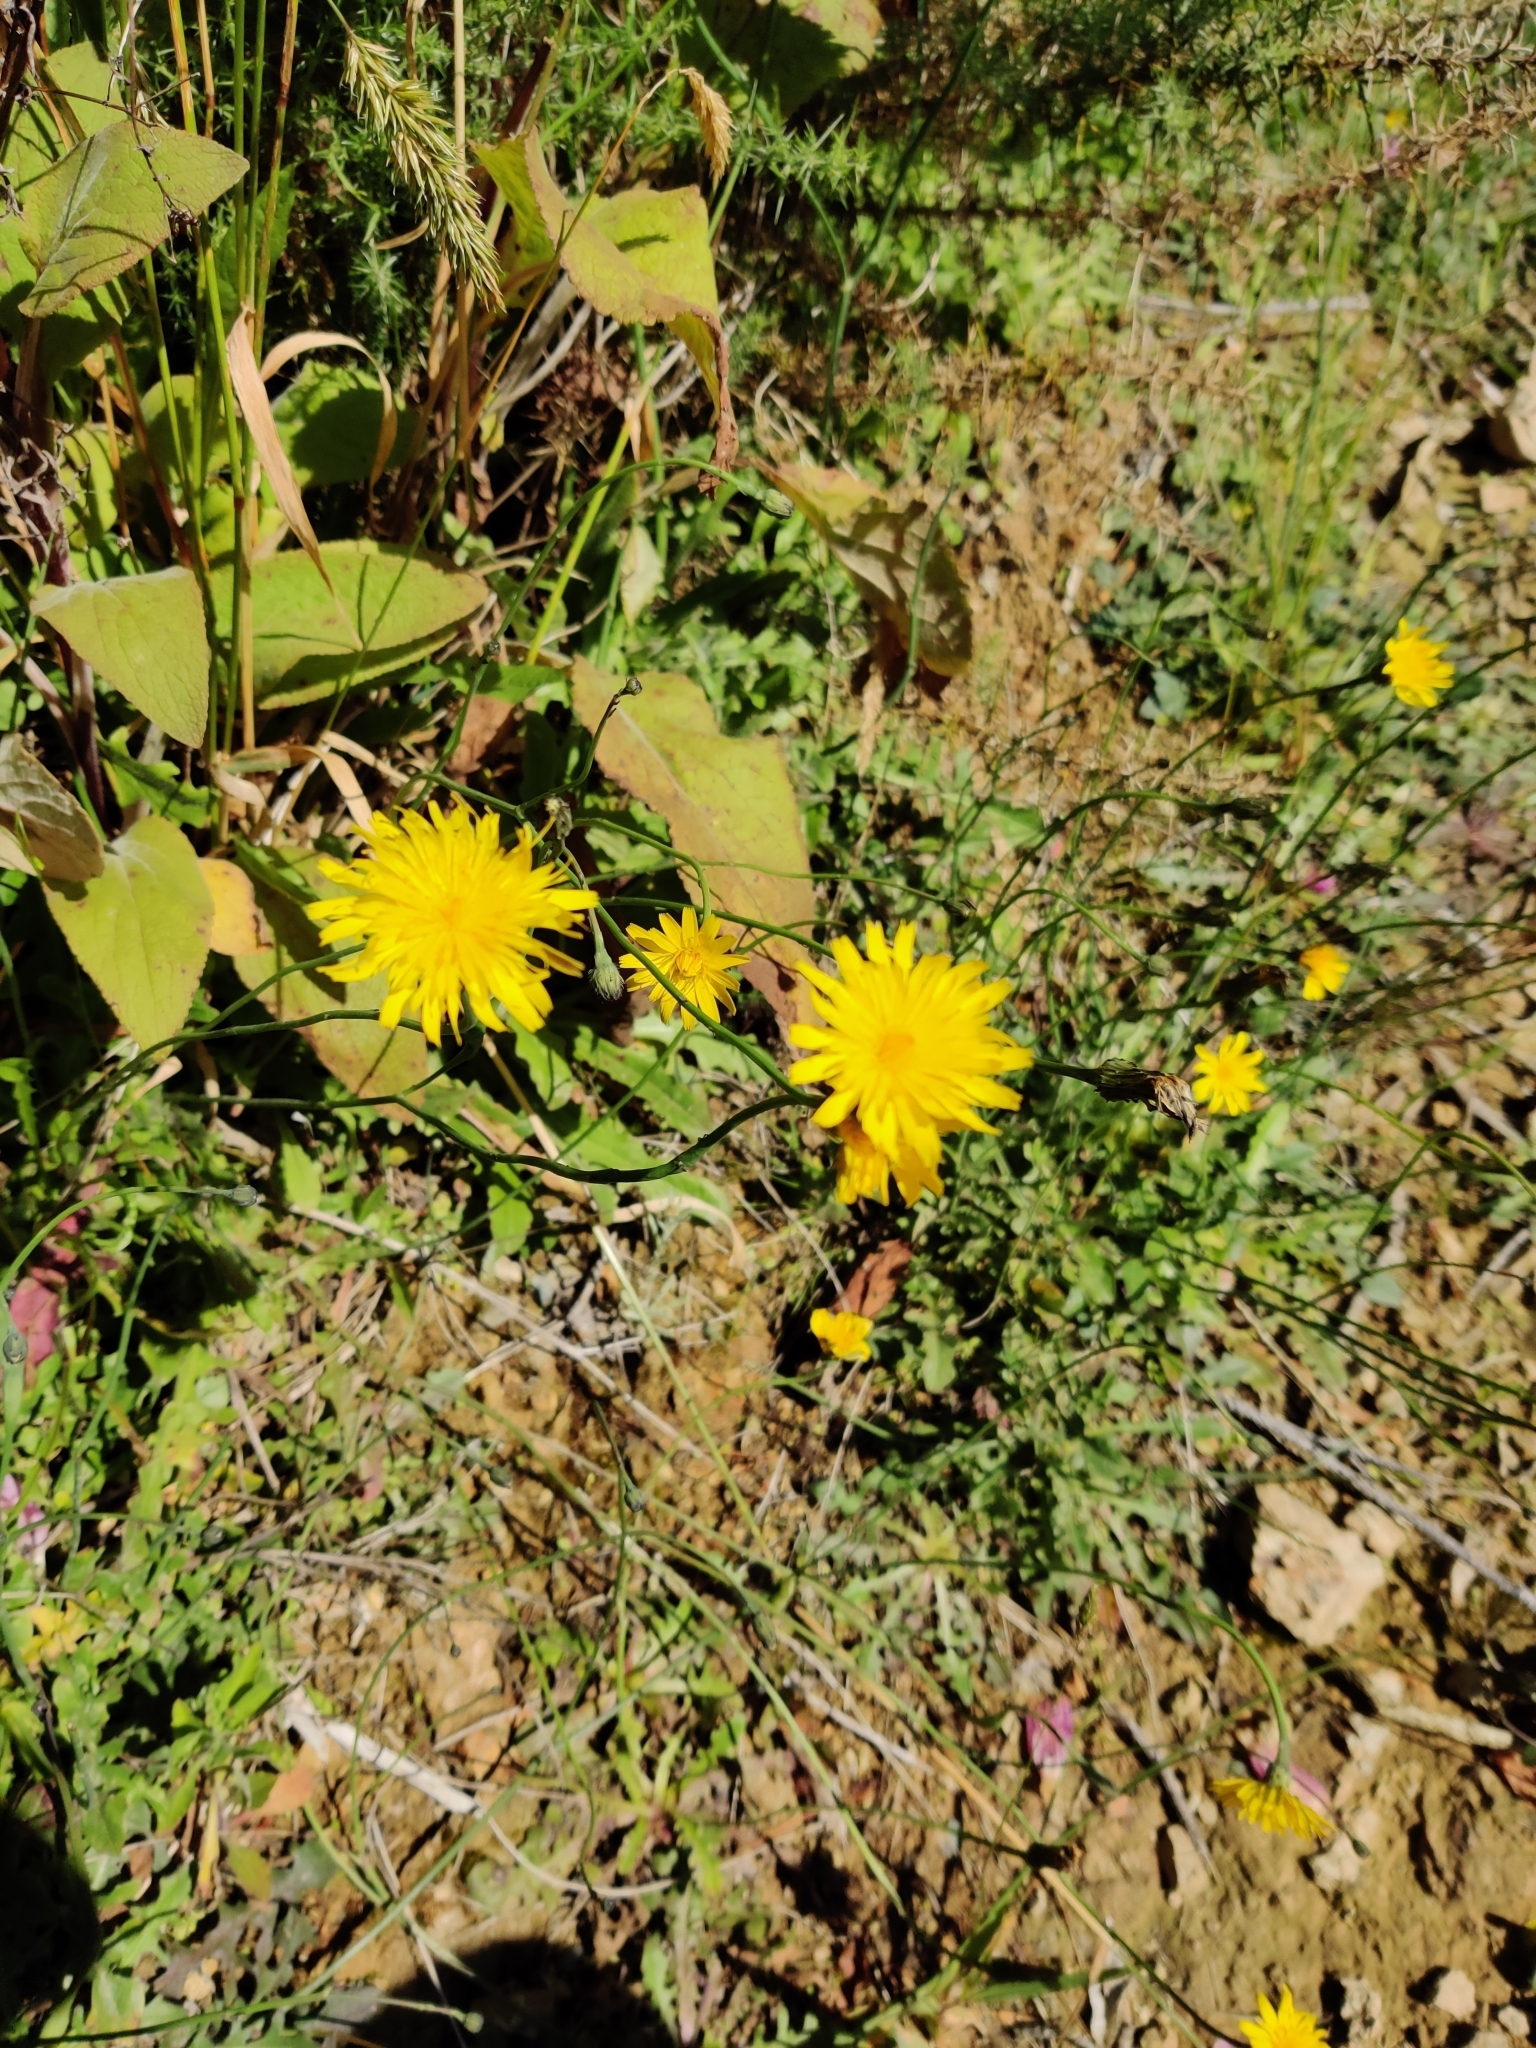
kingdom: Plantae
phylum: Tracheophyta
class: Magnoliopsida
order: Asterales
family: Asteraceae
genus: Hypochaeris
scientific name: Hypochaeris radicata
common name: Flatweed
